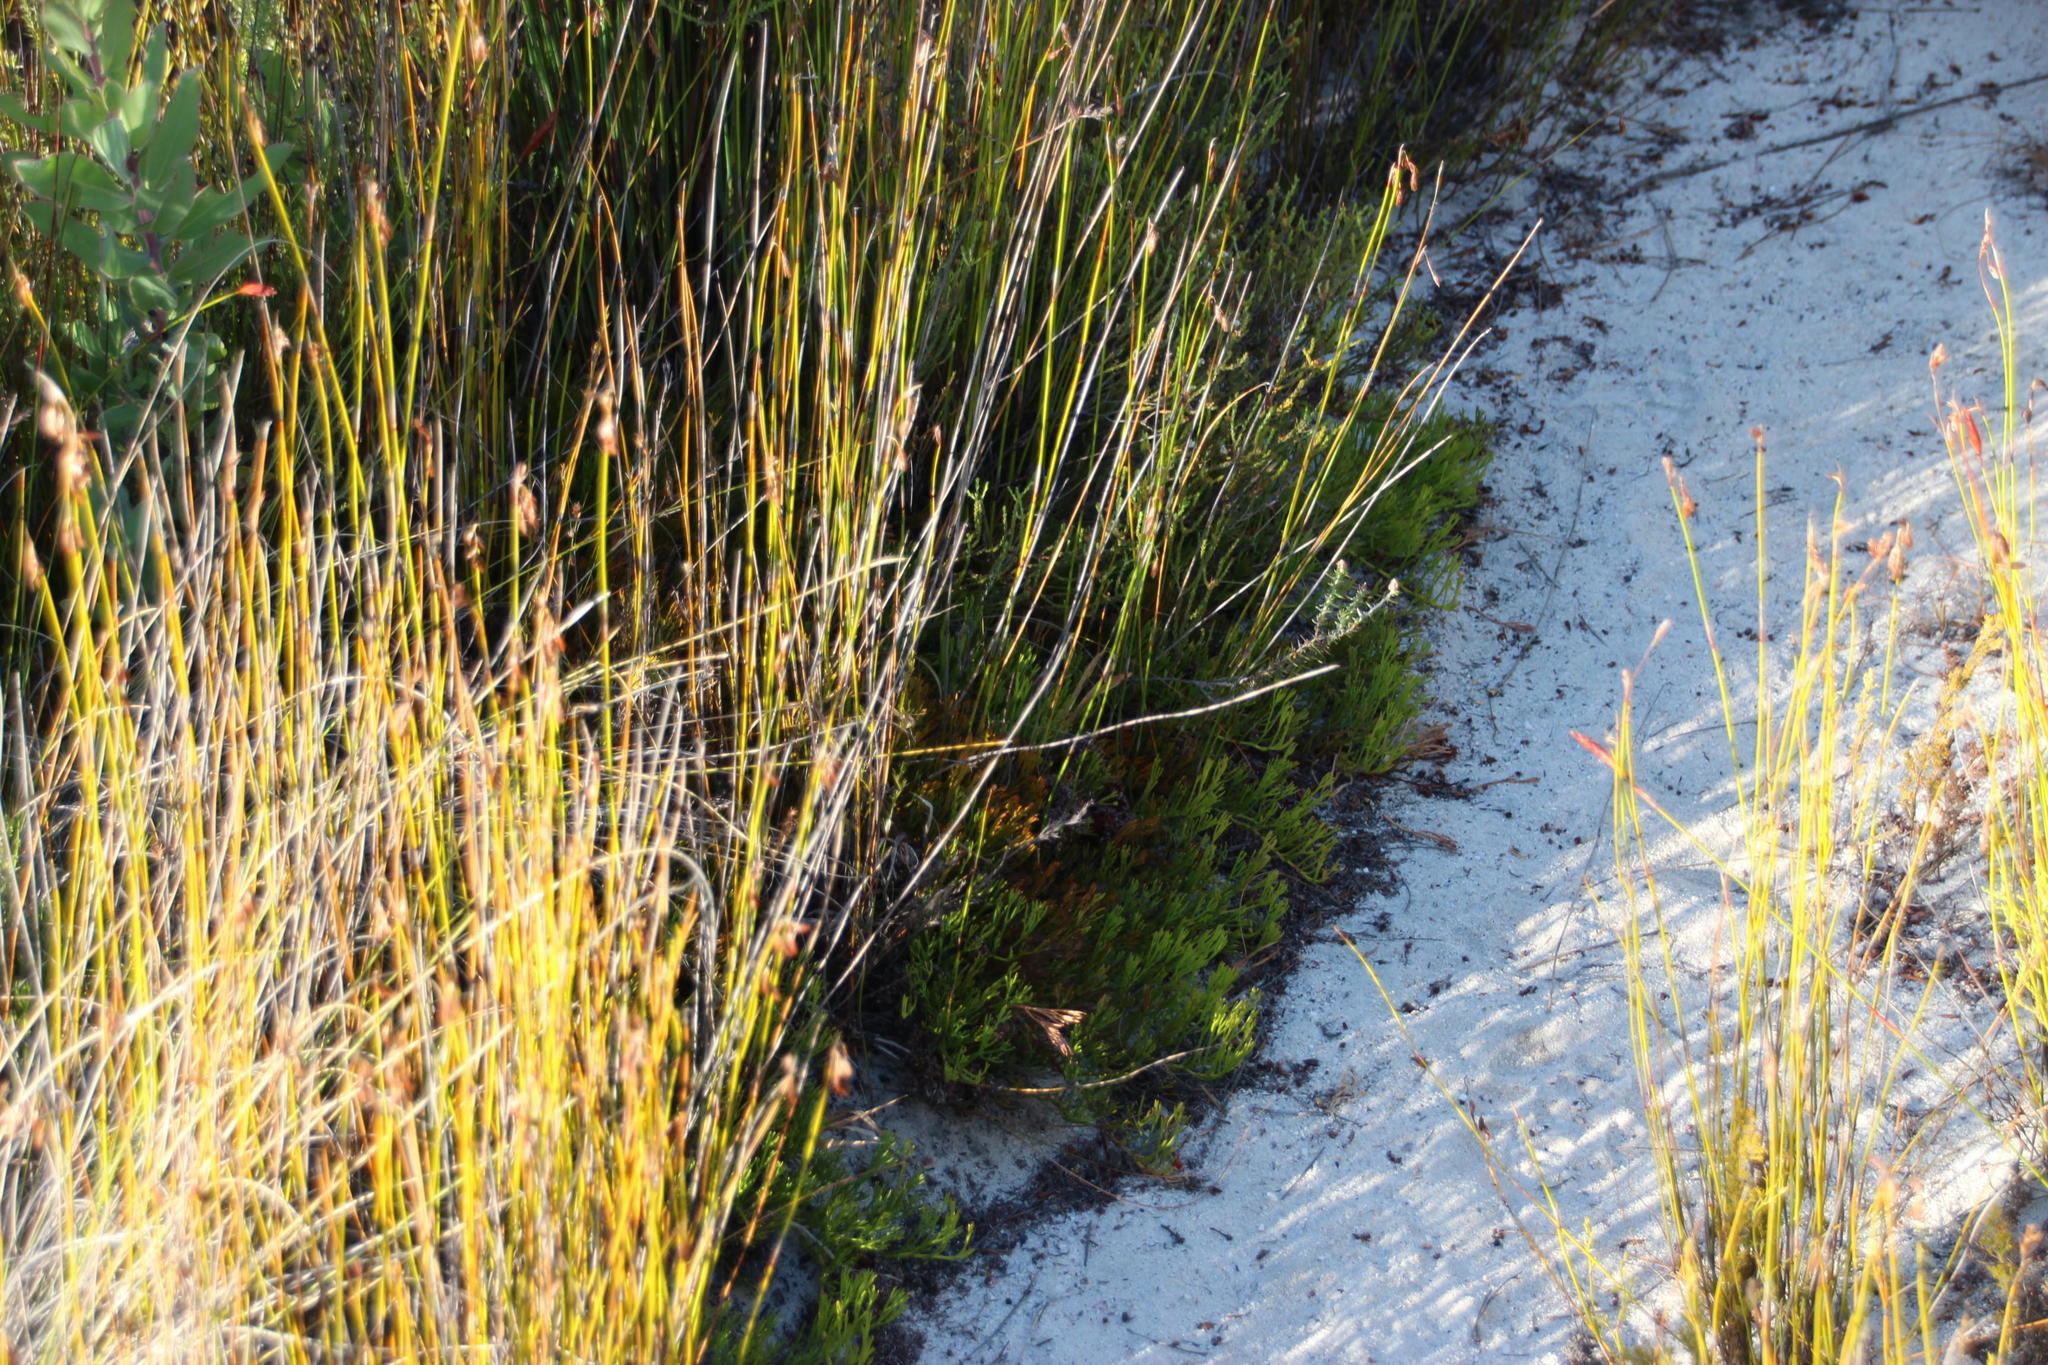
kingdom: Plantae
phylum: Tracheophyta
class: Magnoliopsida
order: Proteales
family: Proteaceae
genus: Serruria
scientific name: Serruria effusa
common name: Candelabra spiderhead
